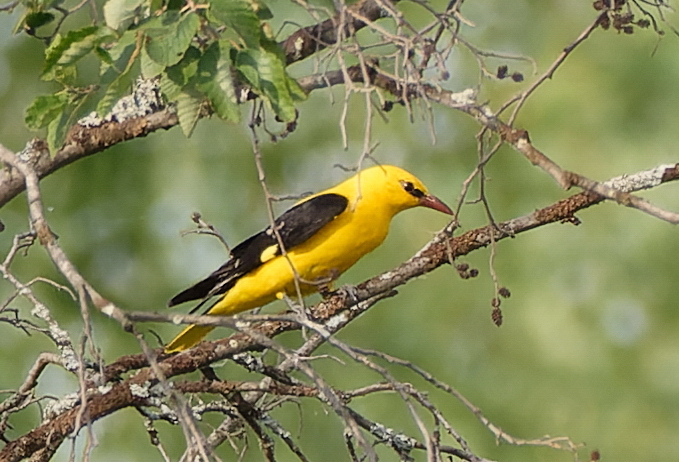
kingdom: Animalia
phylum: Chordata
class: Aves
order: Passeriformes
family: Oriolidae
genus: Oriolus
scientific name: Oriolus oriolus
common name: Eurasian golden oriole
